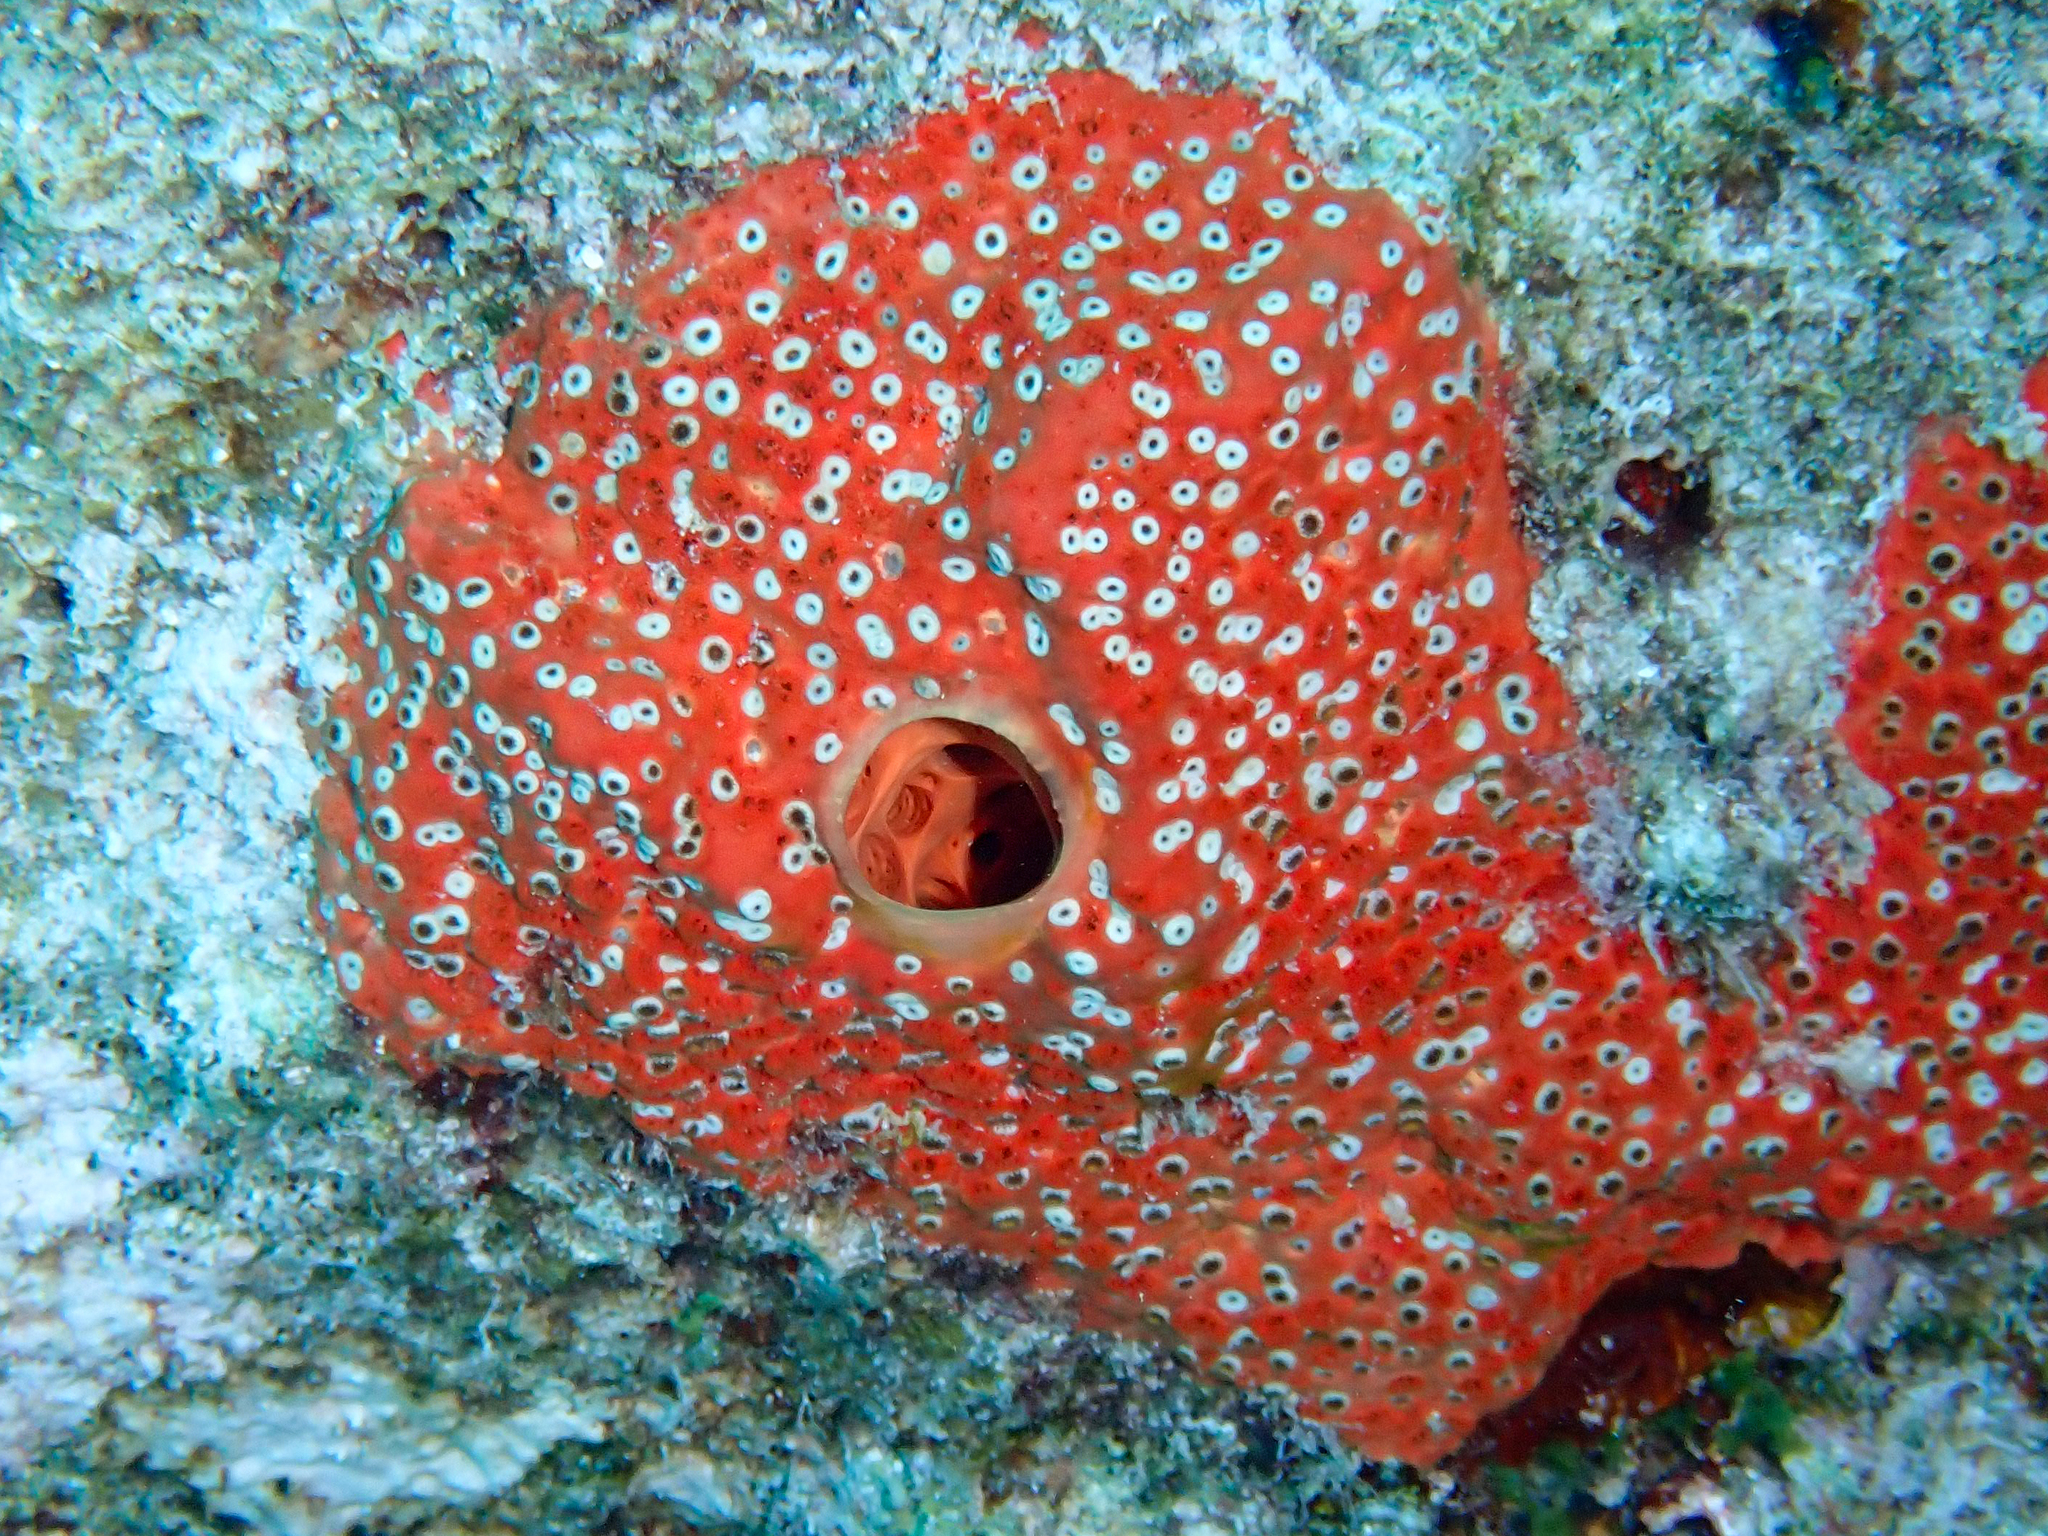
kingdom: Animalia
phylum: Porifera
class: Demospongiae
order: Clionaida
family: Clionaidae
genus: Cliothosa
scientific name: Cliothosa delitrix
